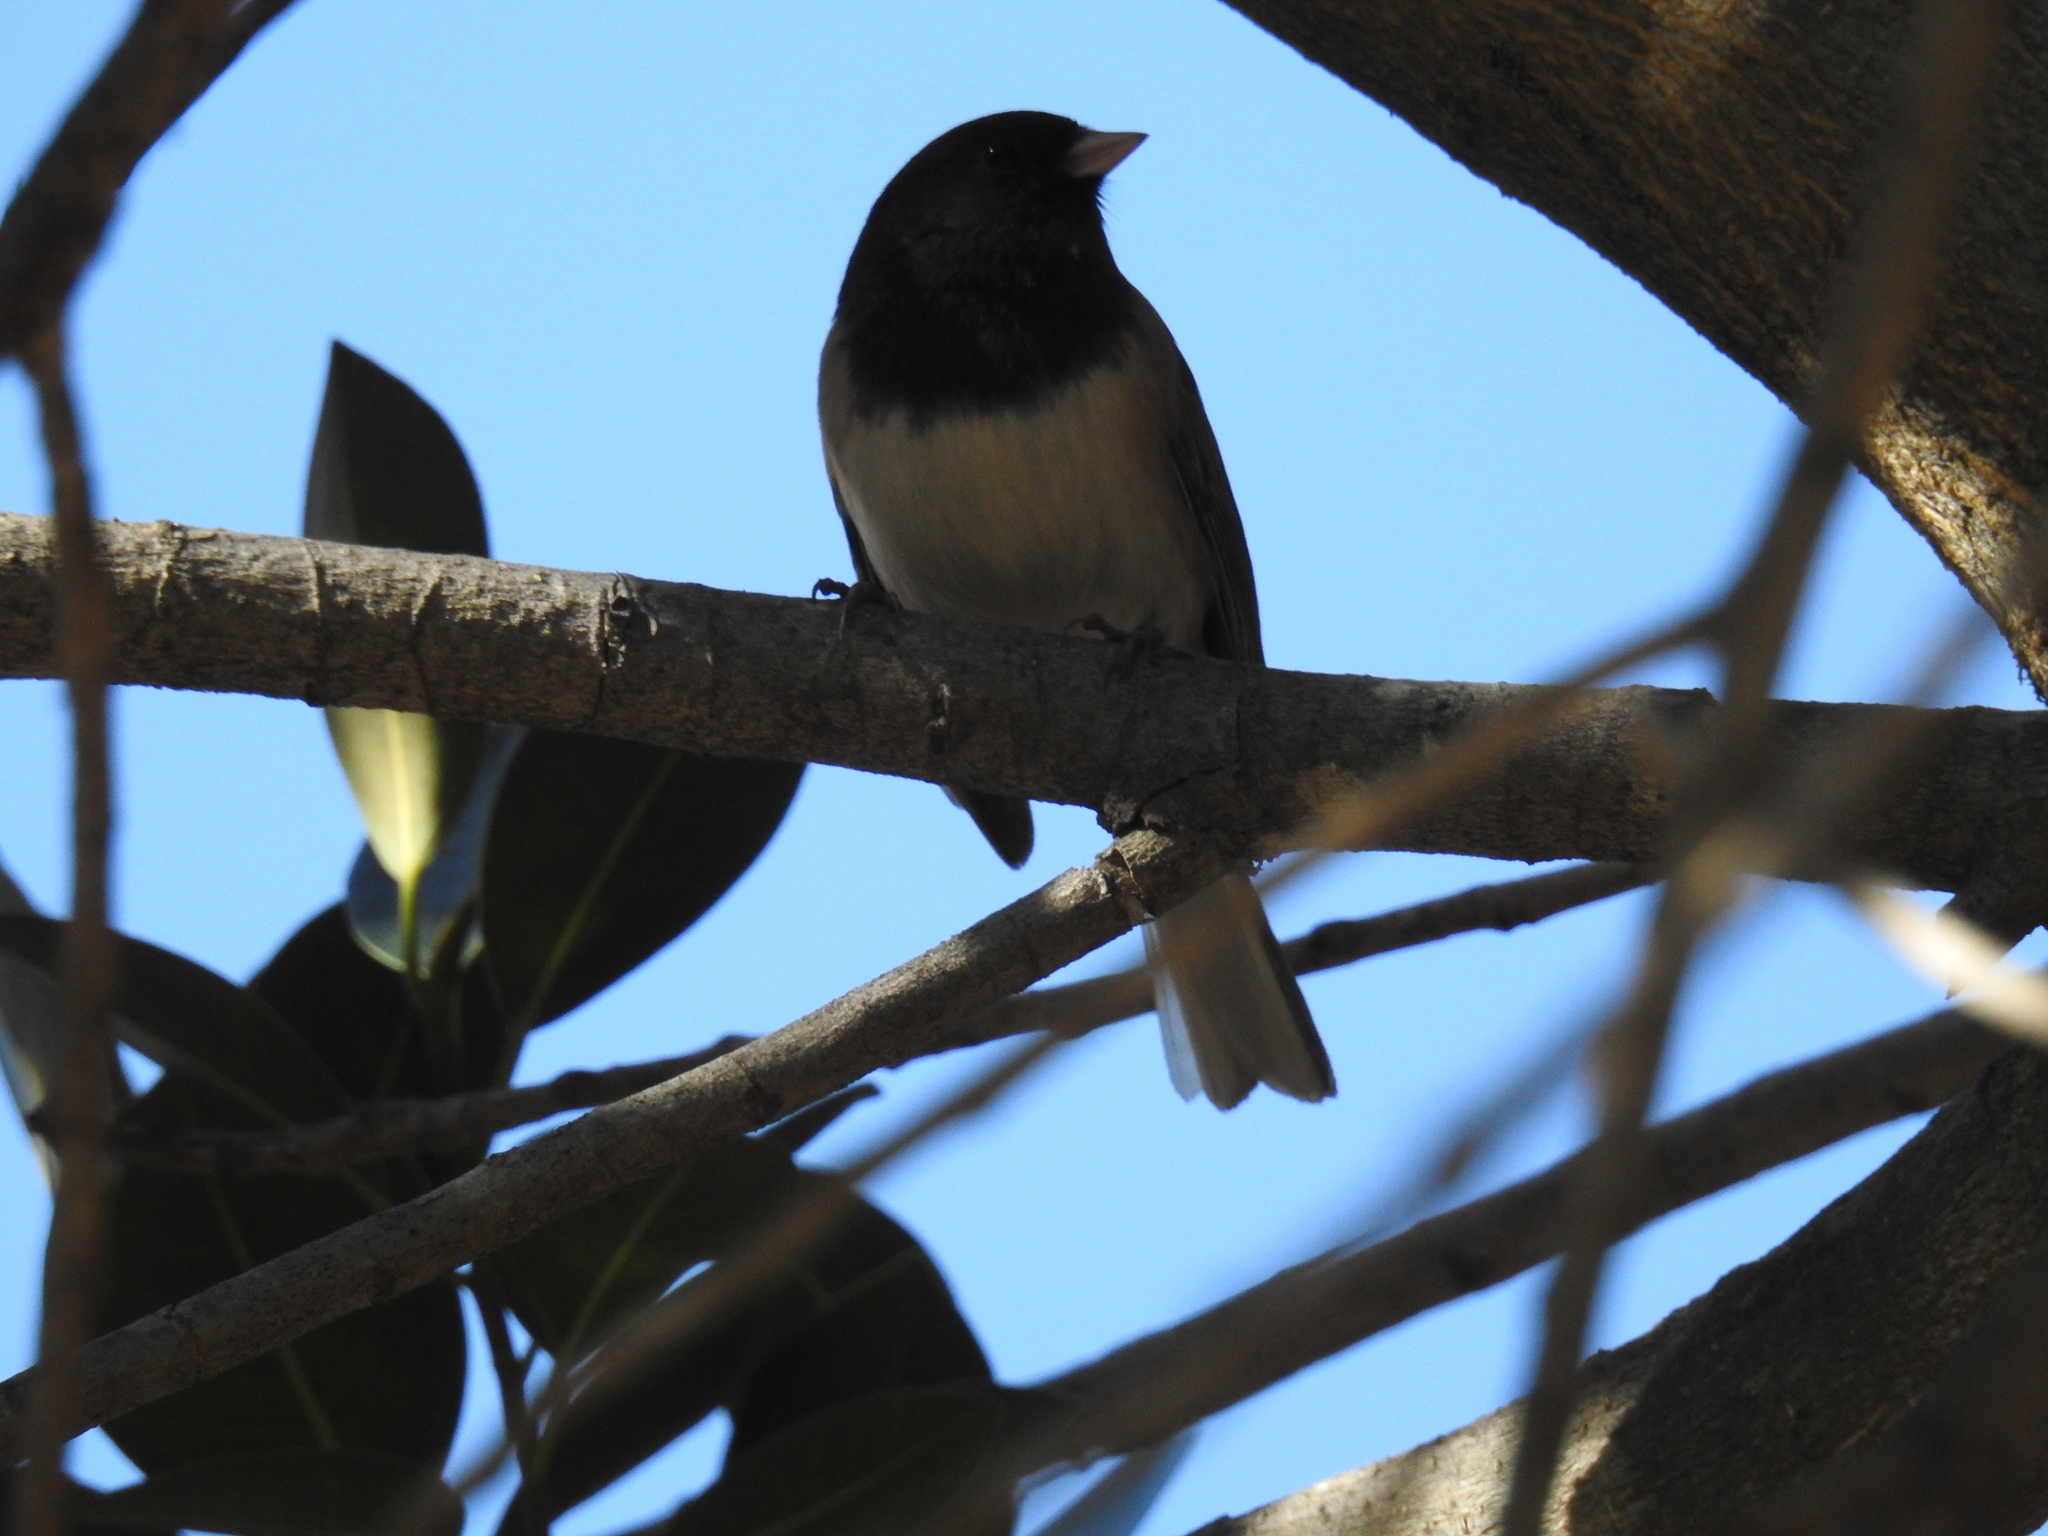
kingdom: Animalia
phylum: Chordata
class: Aves
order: Passeriformes
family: Passerellidae
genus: Junco
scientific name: Junco hyemalis
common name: Dark-eyed junco
